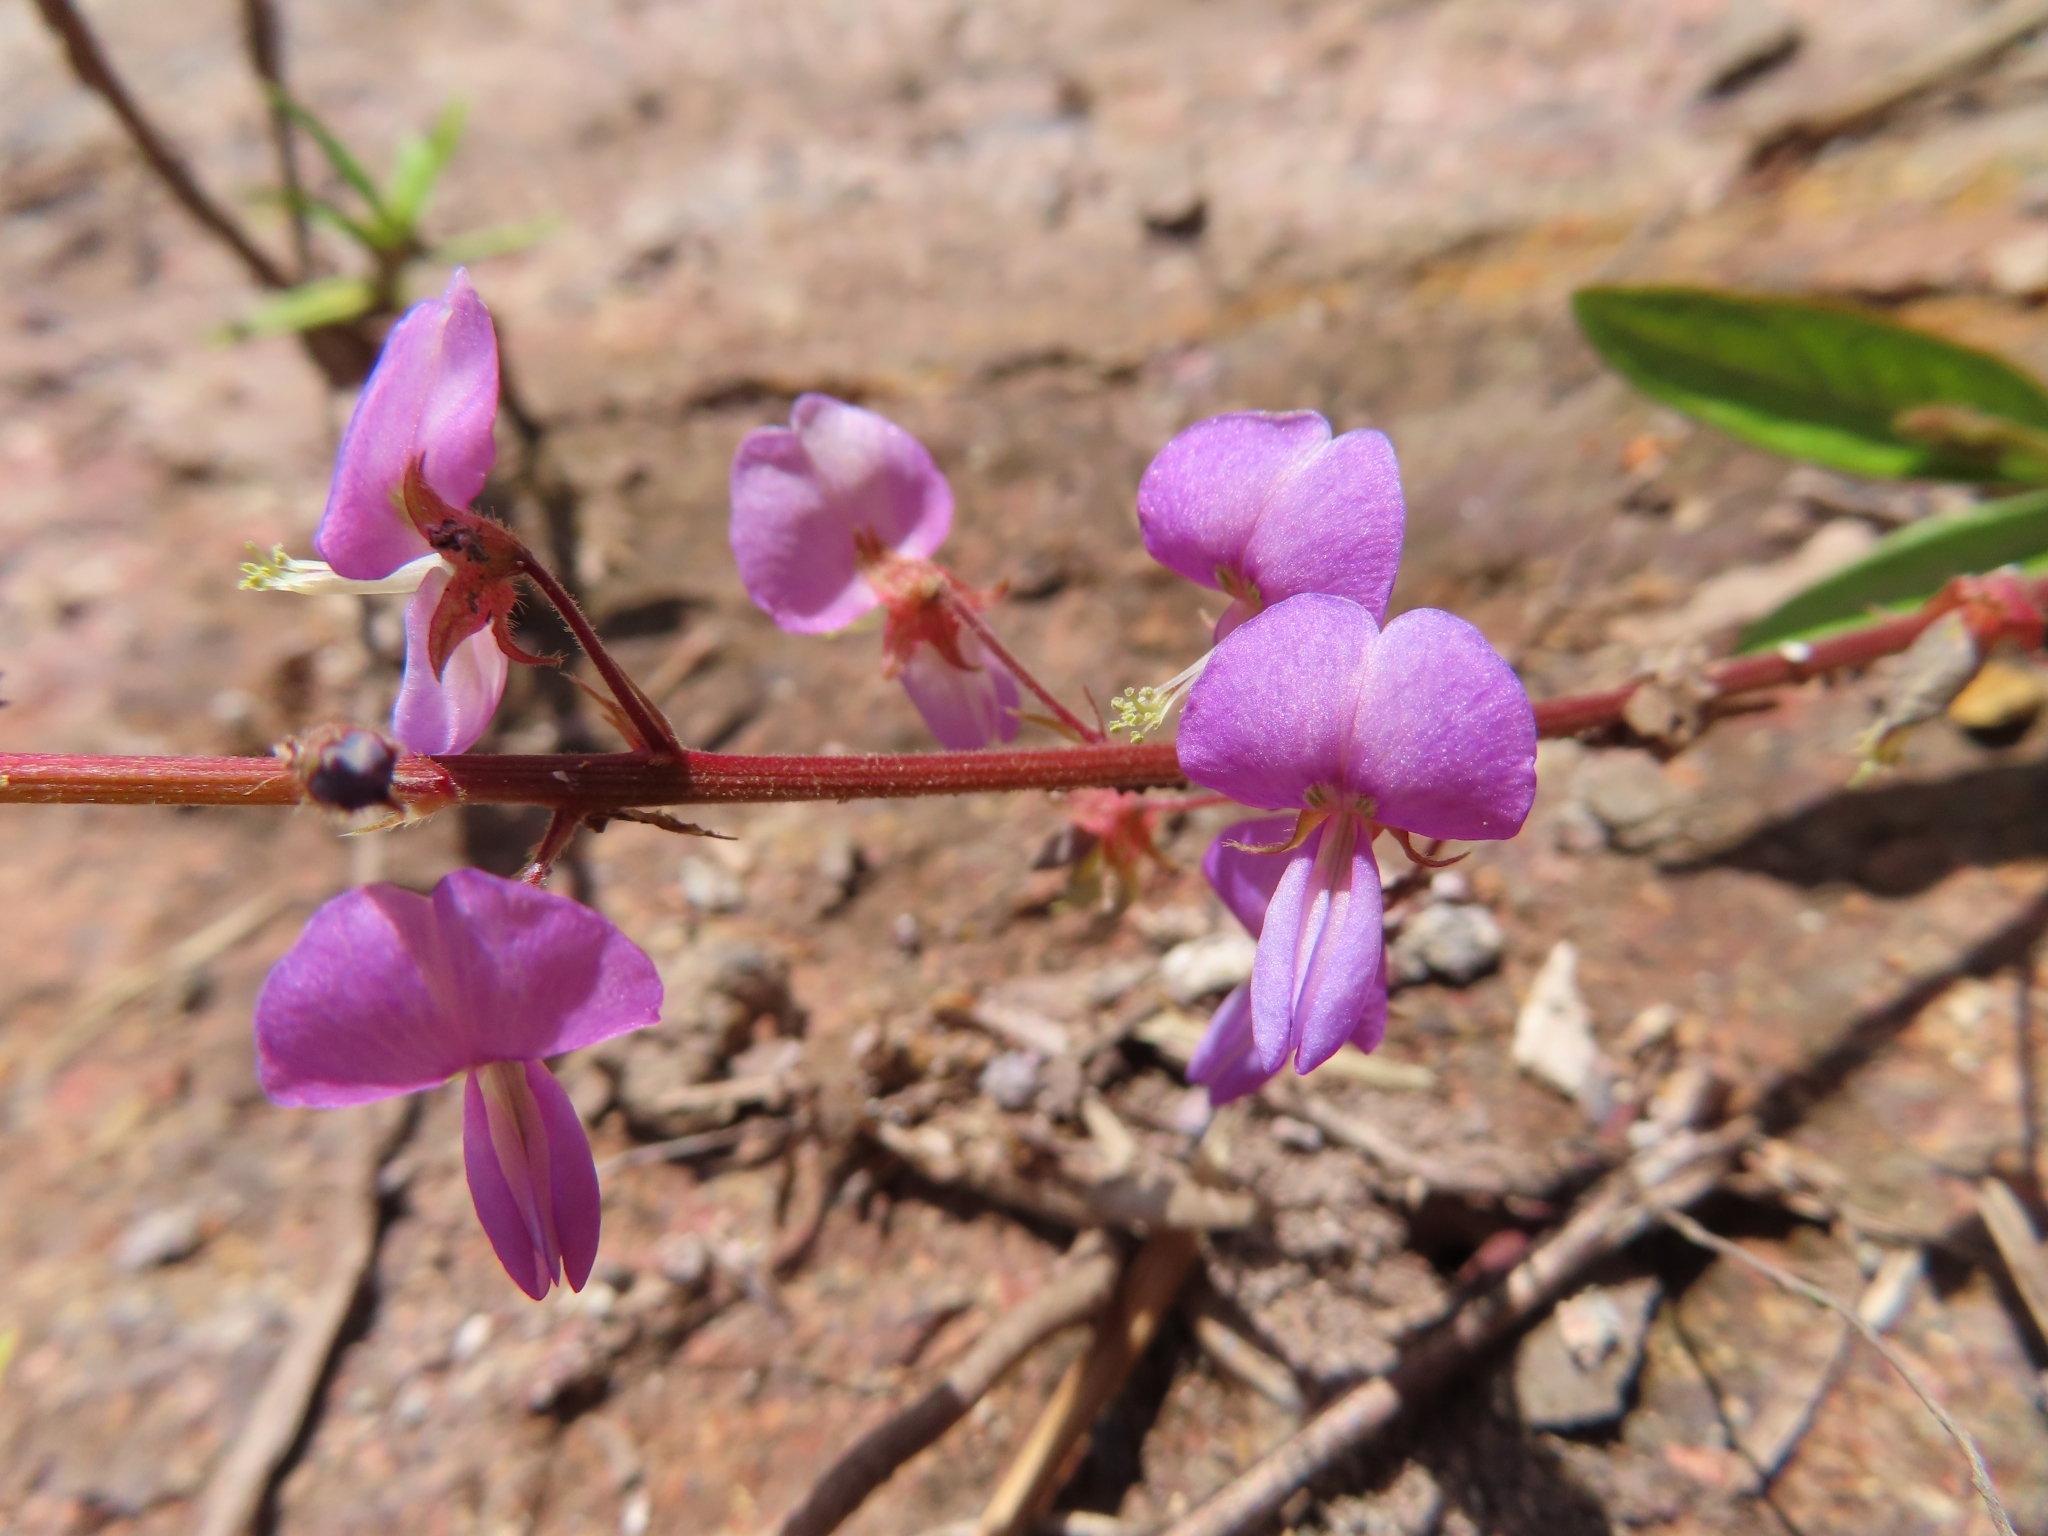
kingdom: Plantae
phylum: Tracheophyta
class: Magnoliopsida
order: Fabales
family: Fabaceae
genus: Desmodium
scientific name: Desmodium incanum
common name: Tickclover
